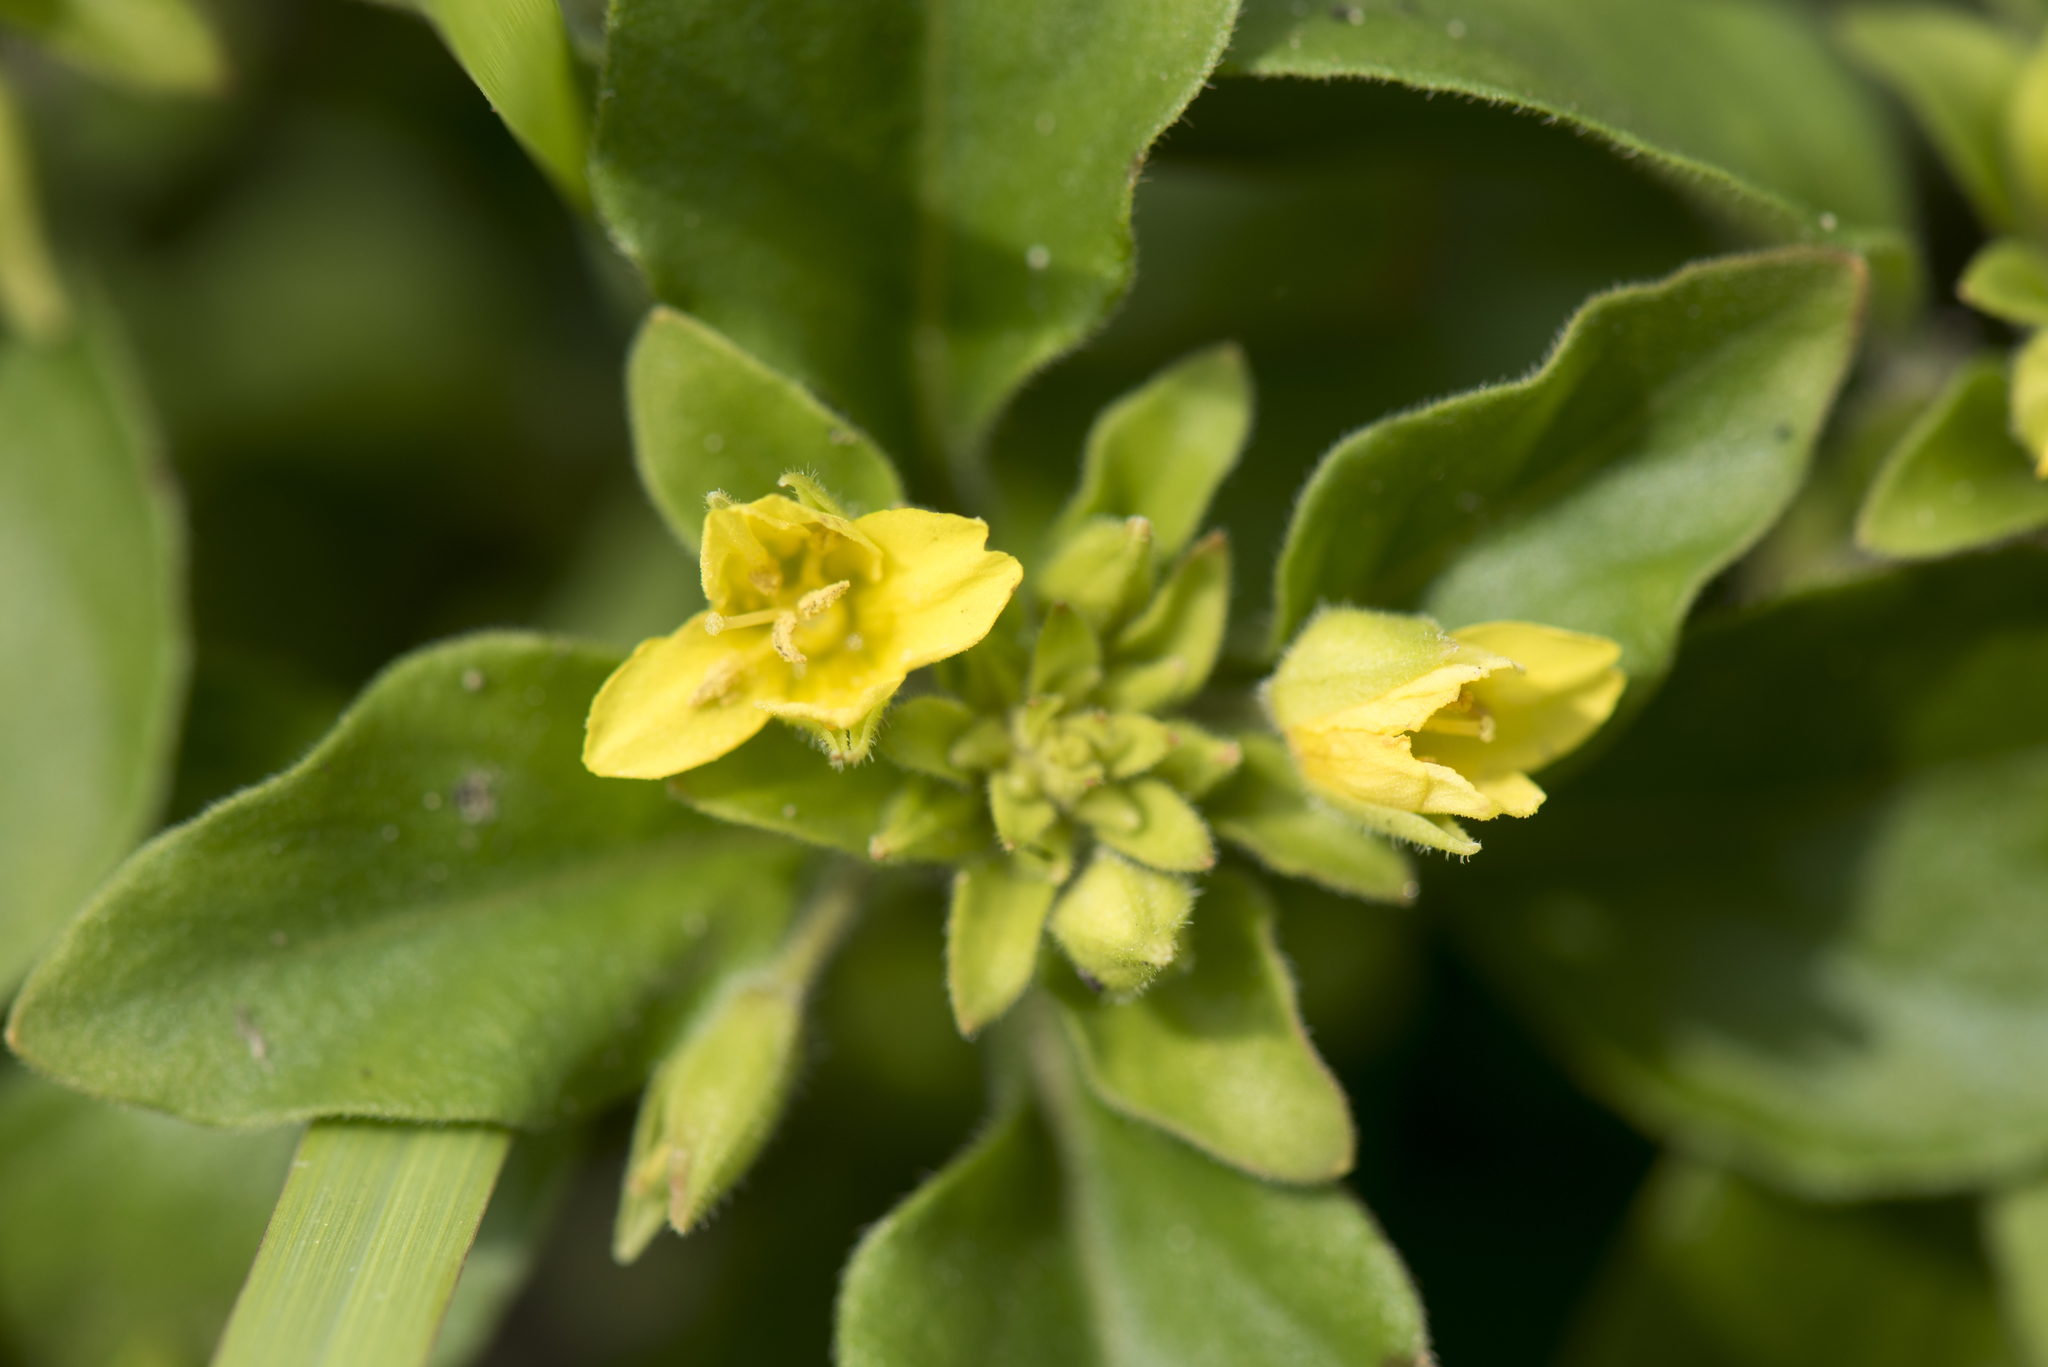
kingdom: Plantae
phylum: Tracheophyta
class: Magnoliopsida
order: Ericales
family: Primulaceae
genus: Lysimachia
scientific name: Lysimachia remota
